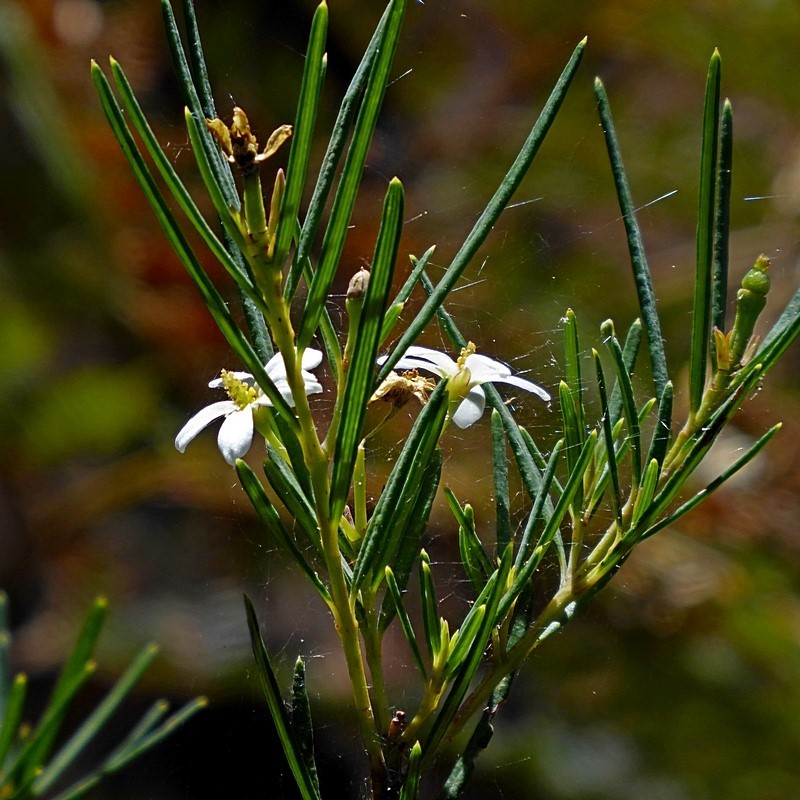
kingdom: Plantae
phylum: Tracheophyta
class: Magnoliopsida
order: Malpighiales
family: Euphorbiaceae
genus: Ricinocarpos
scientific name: Ricinocarpos pinifolius
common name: Weddingbush
